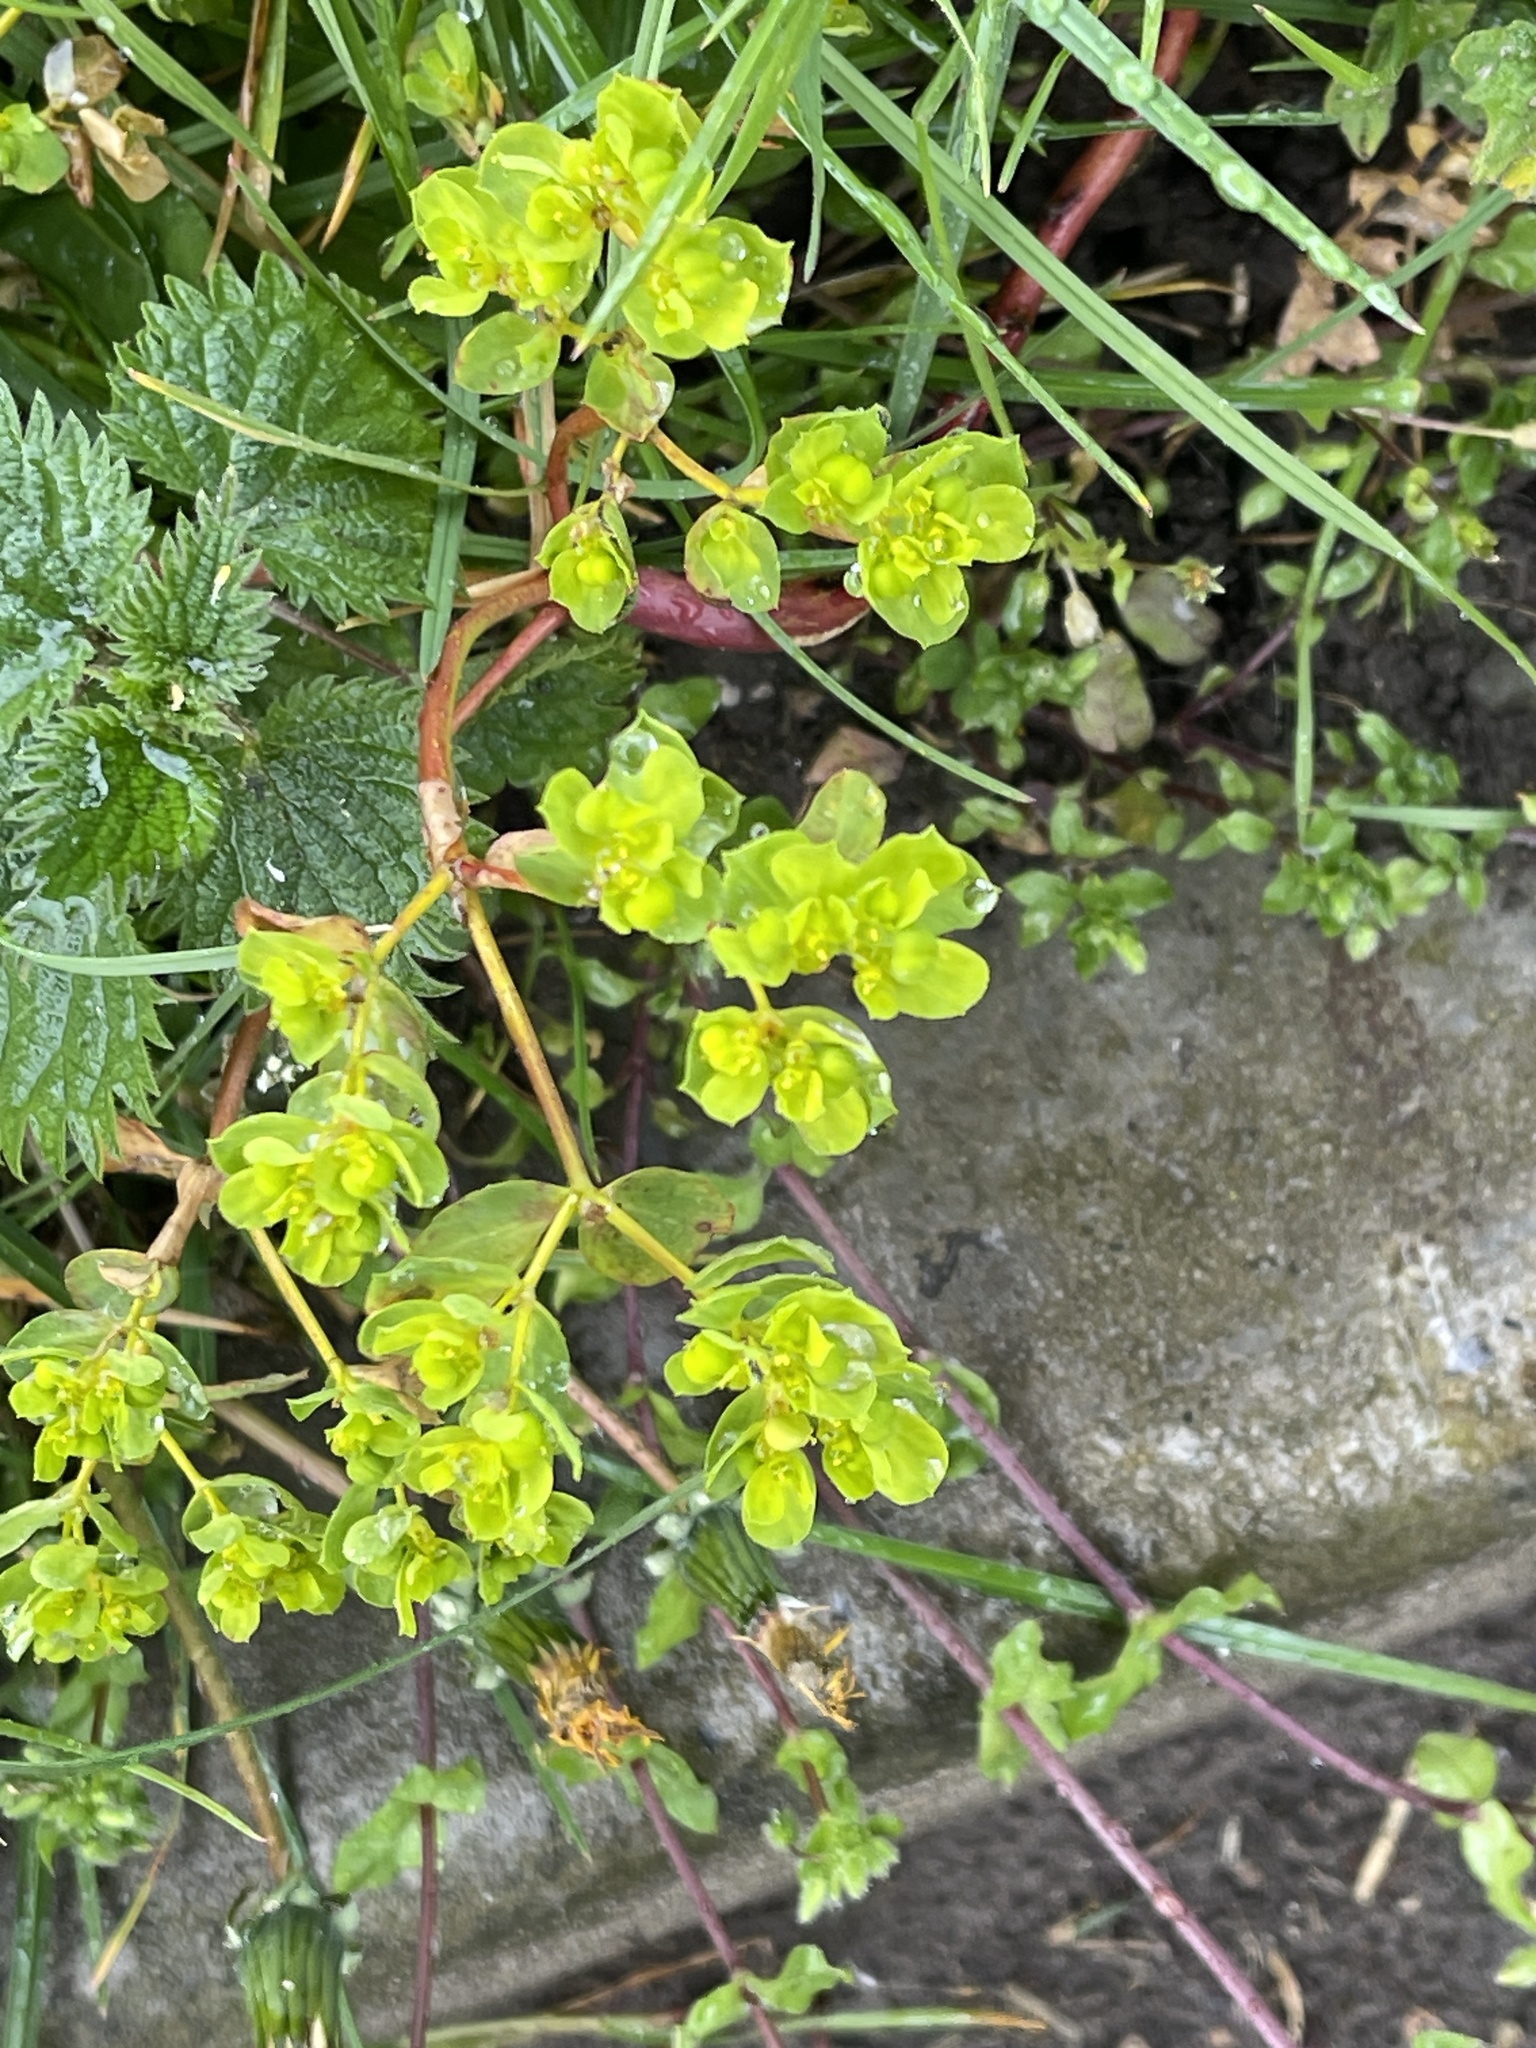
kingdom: Plantae
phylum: Tracheophyta
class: Magnoliopsida
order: Malpighiales
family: Euphorbiaceae
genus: Euphorbia
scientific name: Euphorbia helioscopia
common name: Sun spurge
